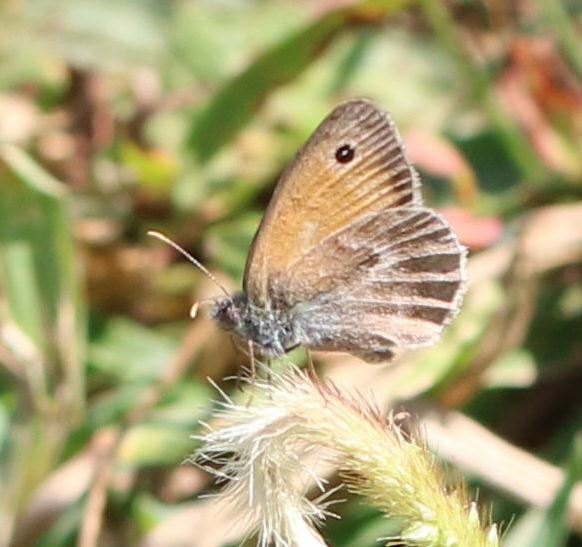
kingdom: Animalia
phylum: Arthropoda
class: Insecta
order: Lepidoptera
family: Nymphalidae
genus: Coenonympha
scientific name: Coenonympha pamphilus
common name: Small heath
